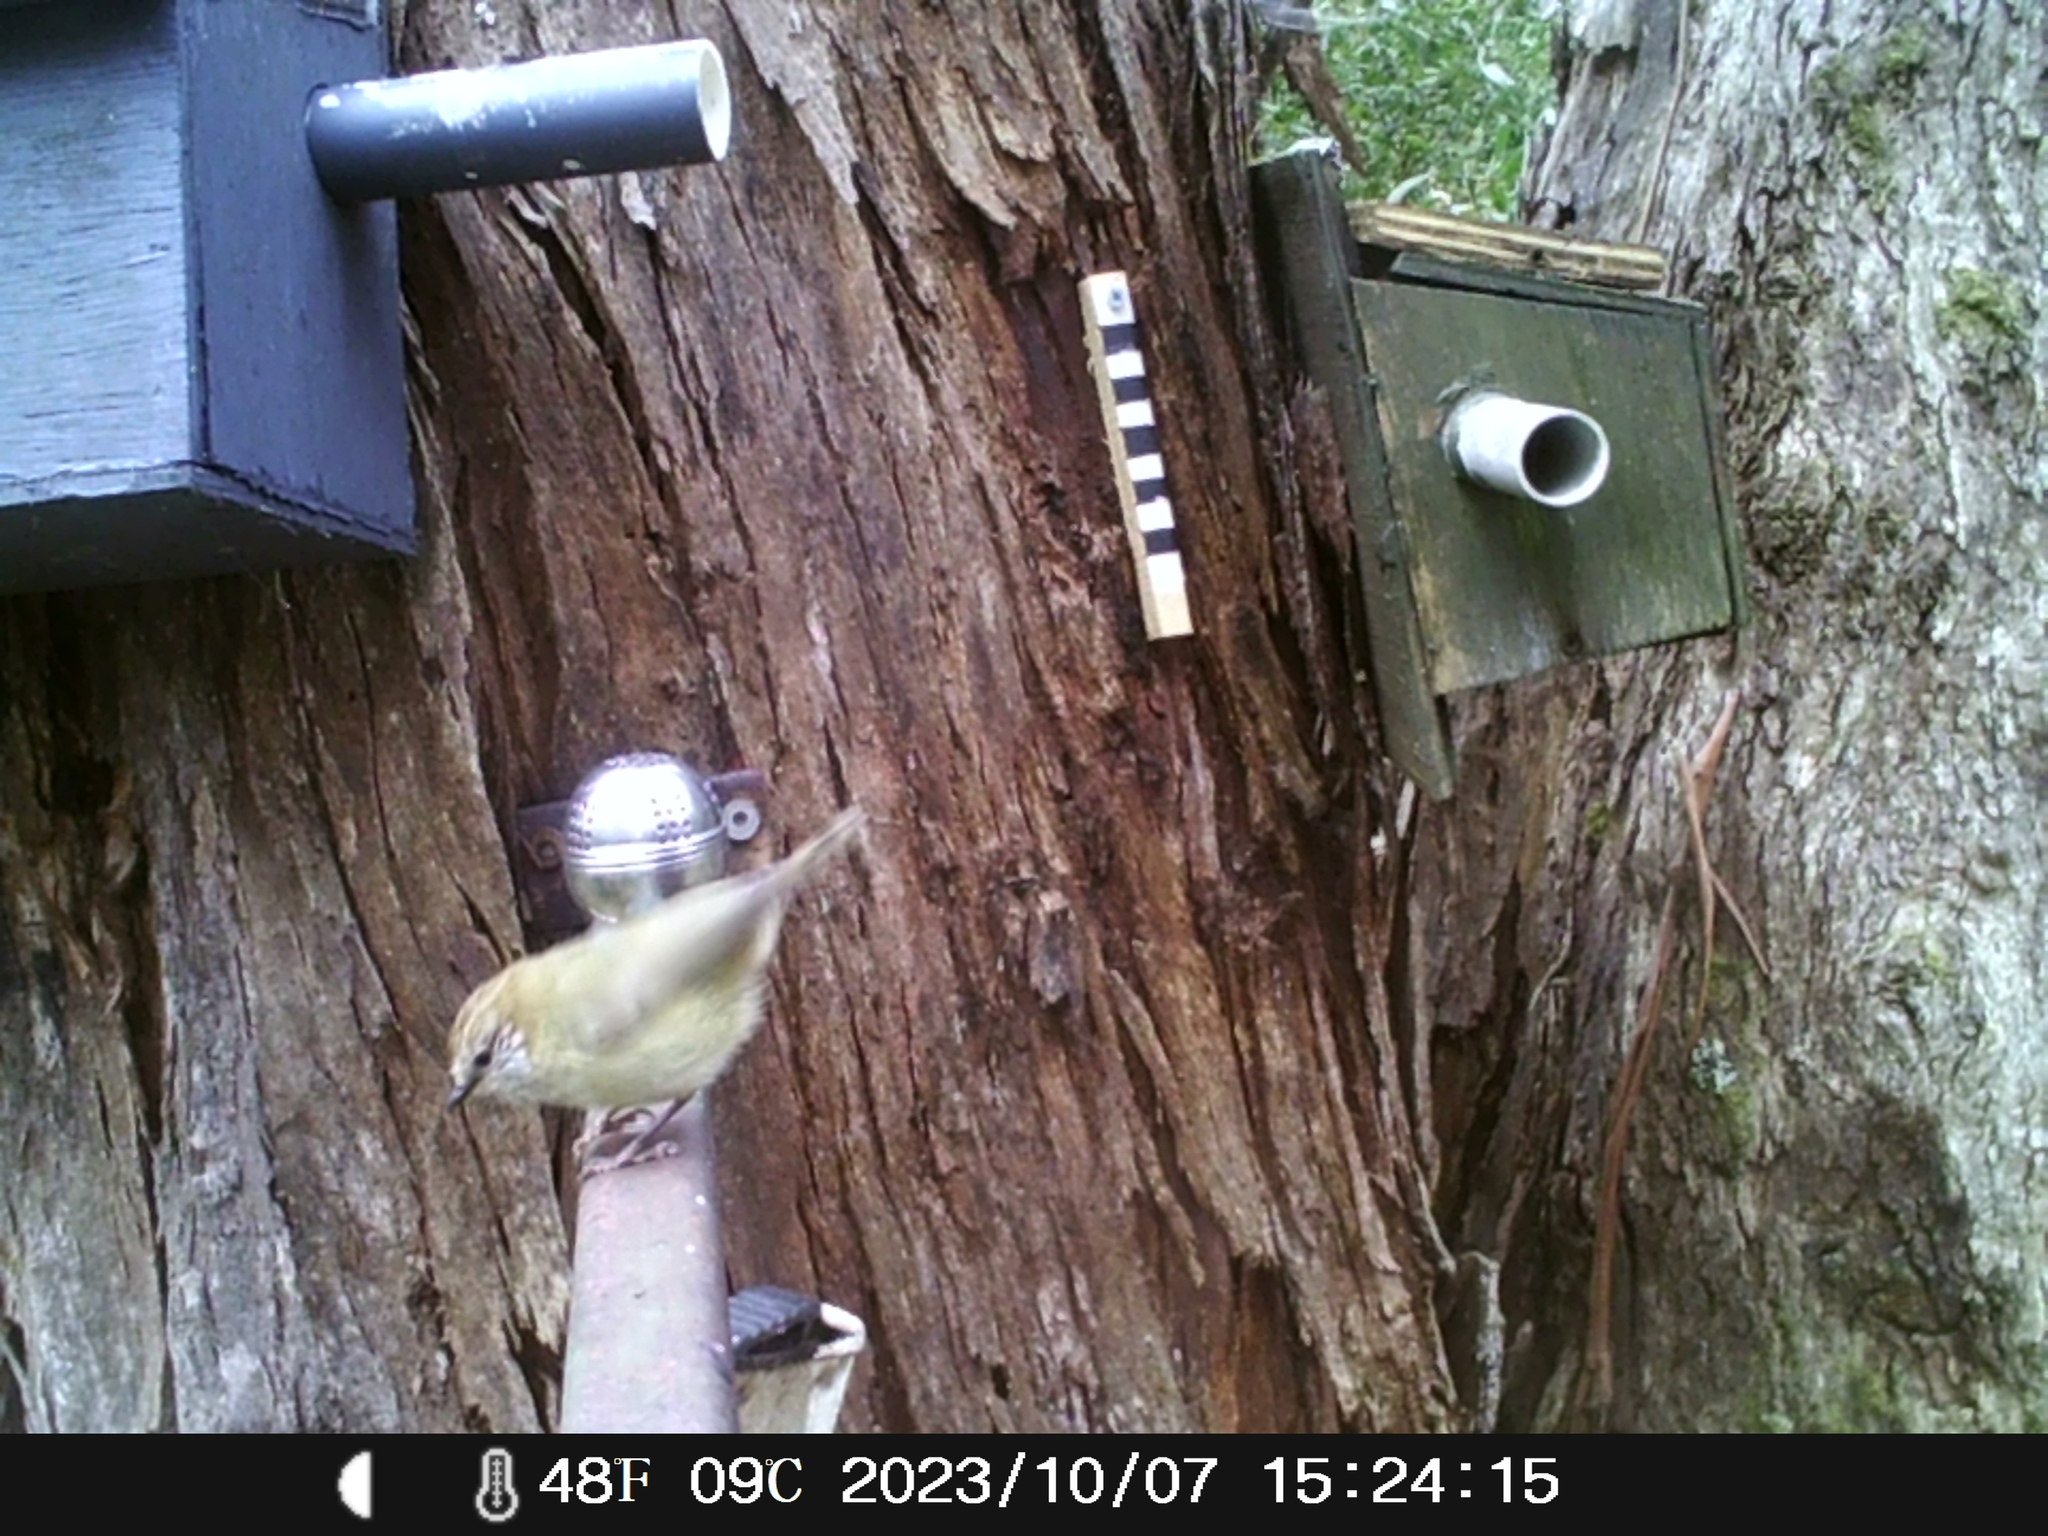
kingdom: Animalia
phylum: Chordata
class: Aves
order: Passeriformes
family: Acanthizidae
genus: Acanthiza
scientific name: Acanthiza lineata
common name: Striated thornbill
